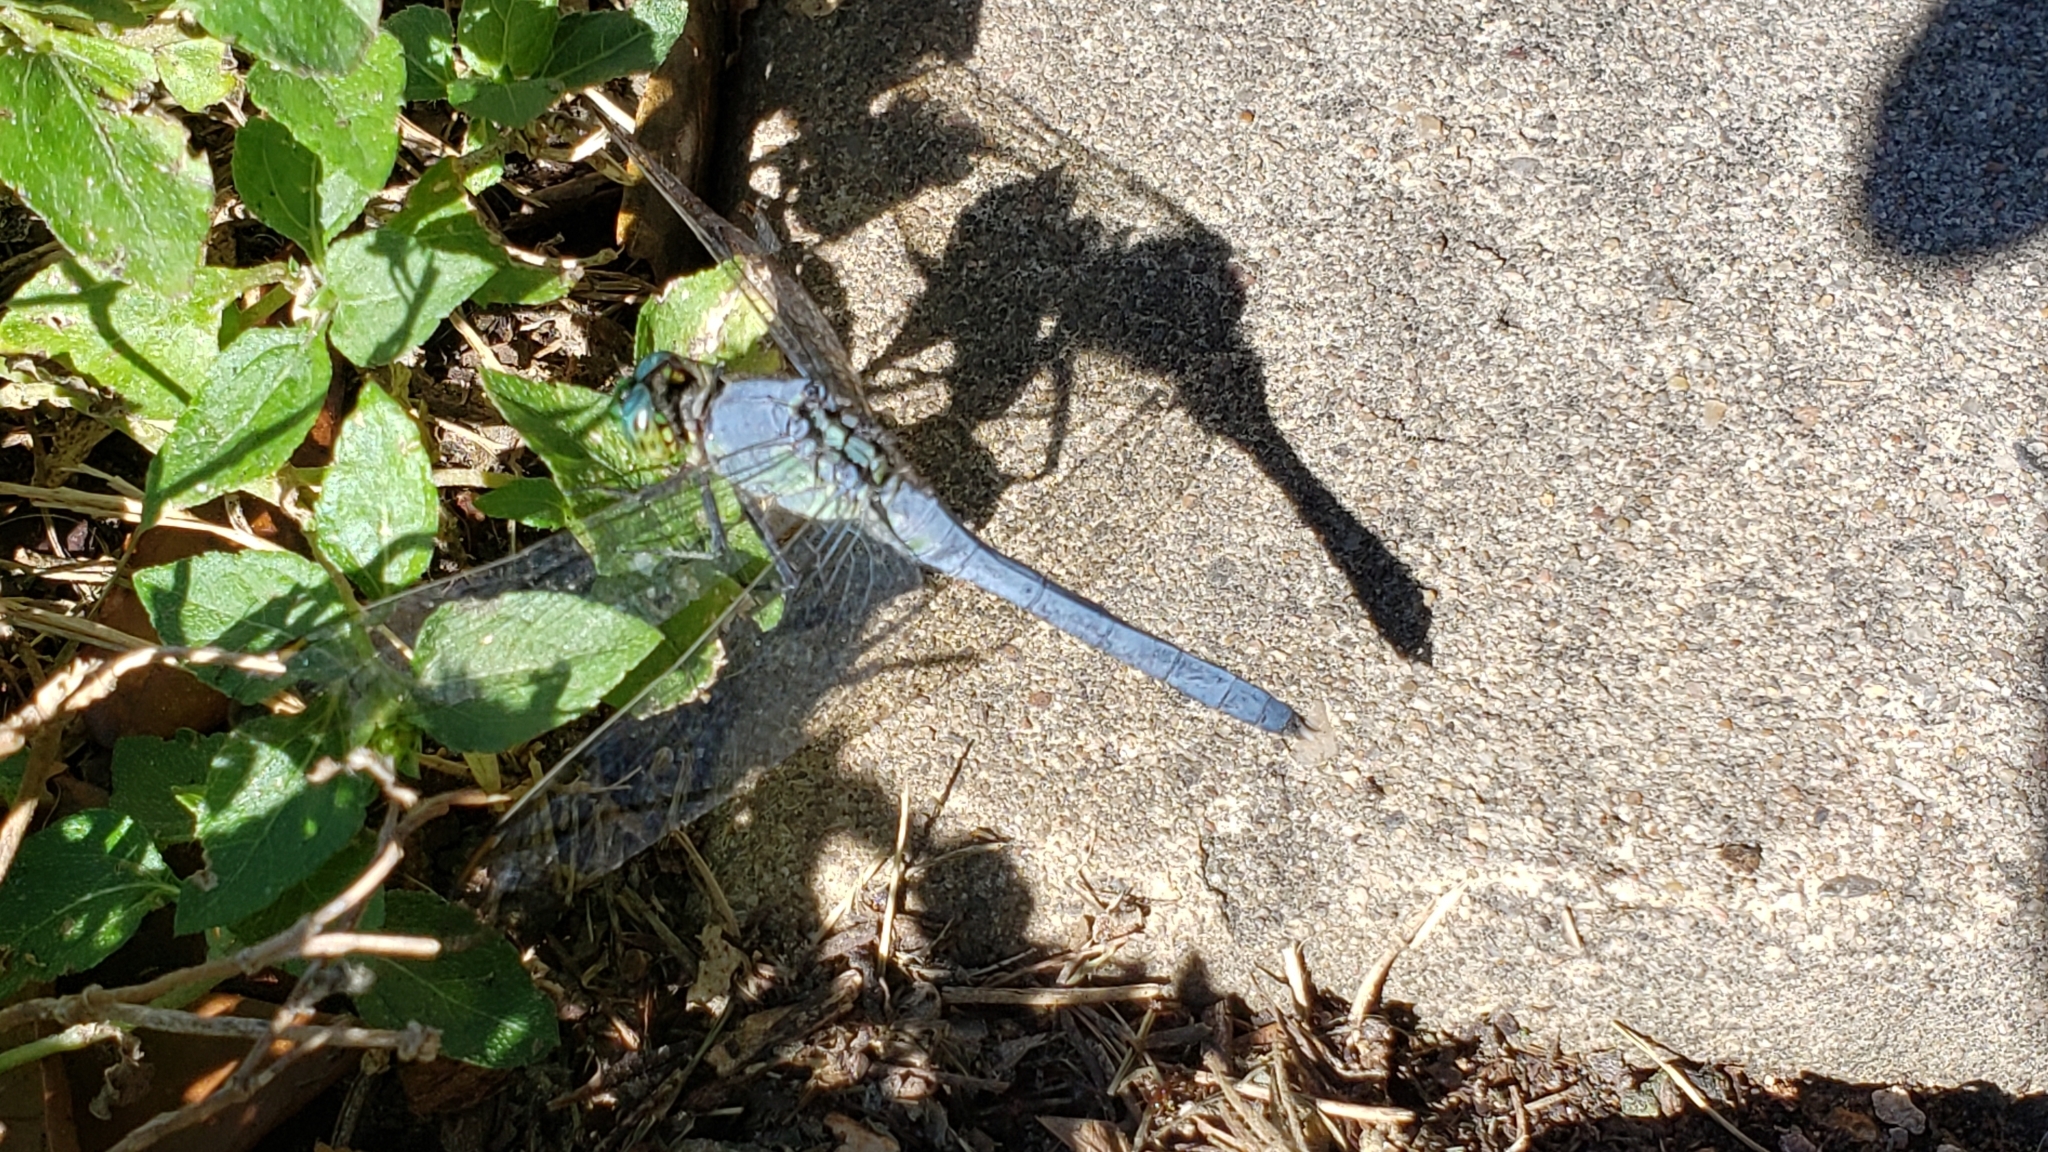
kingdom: Animalia
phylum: Arthropoda
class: Insecta
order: Odonata
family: Libellulidae
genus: Erythemis
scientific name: Erythemis simplicicollis
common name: Eastern pondhawk
